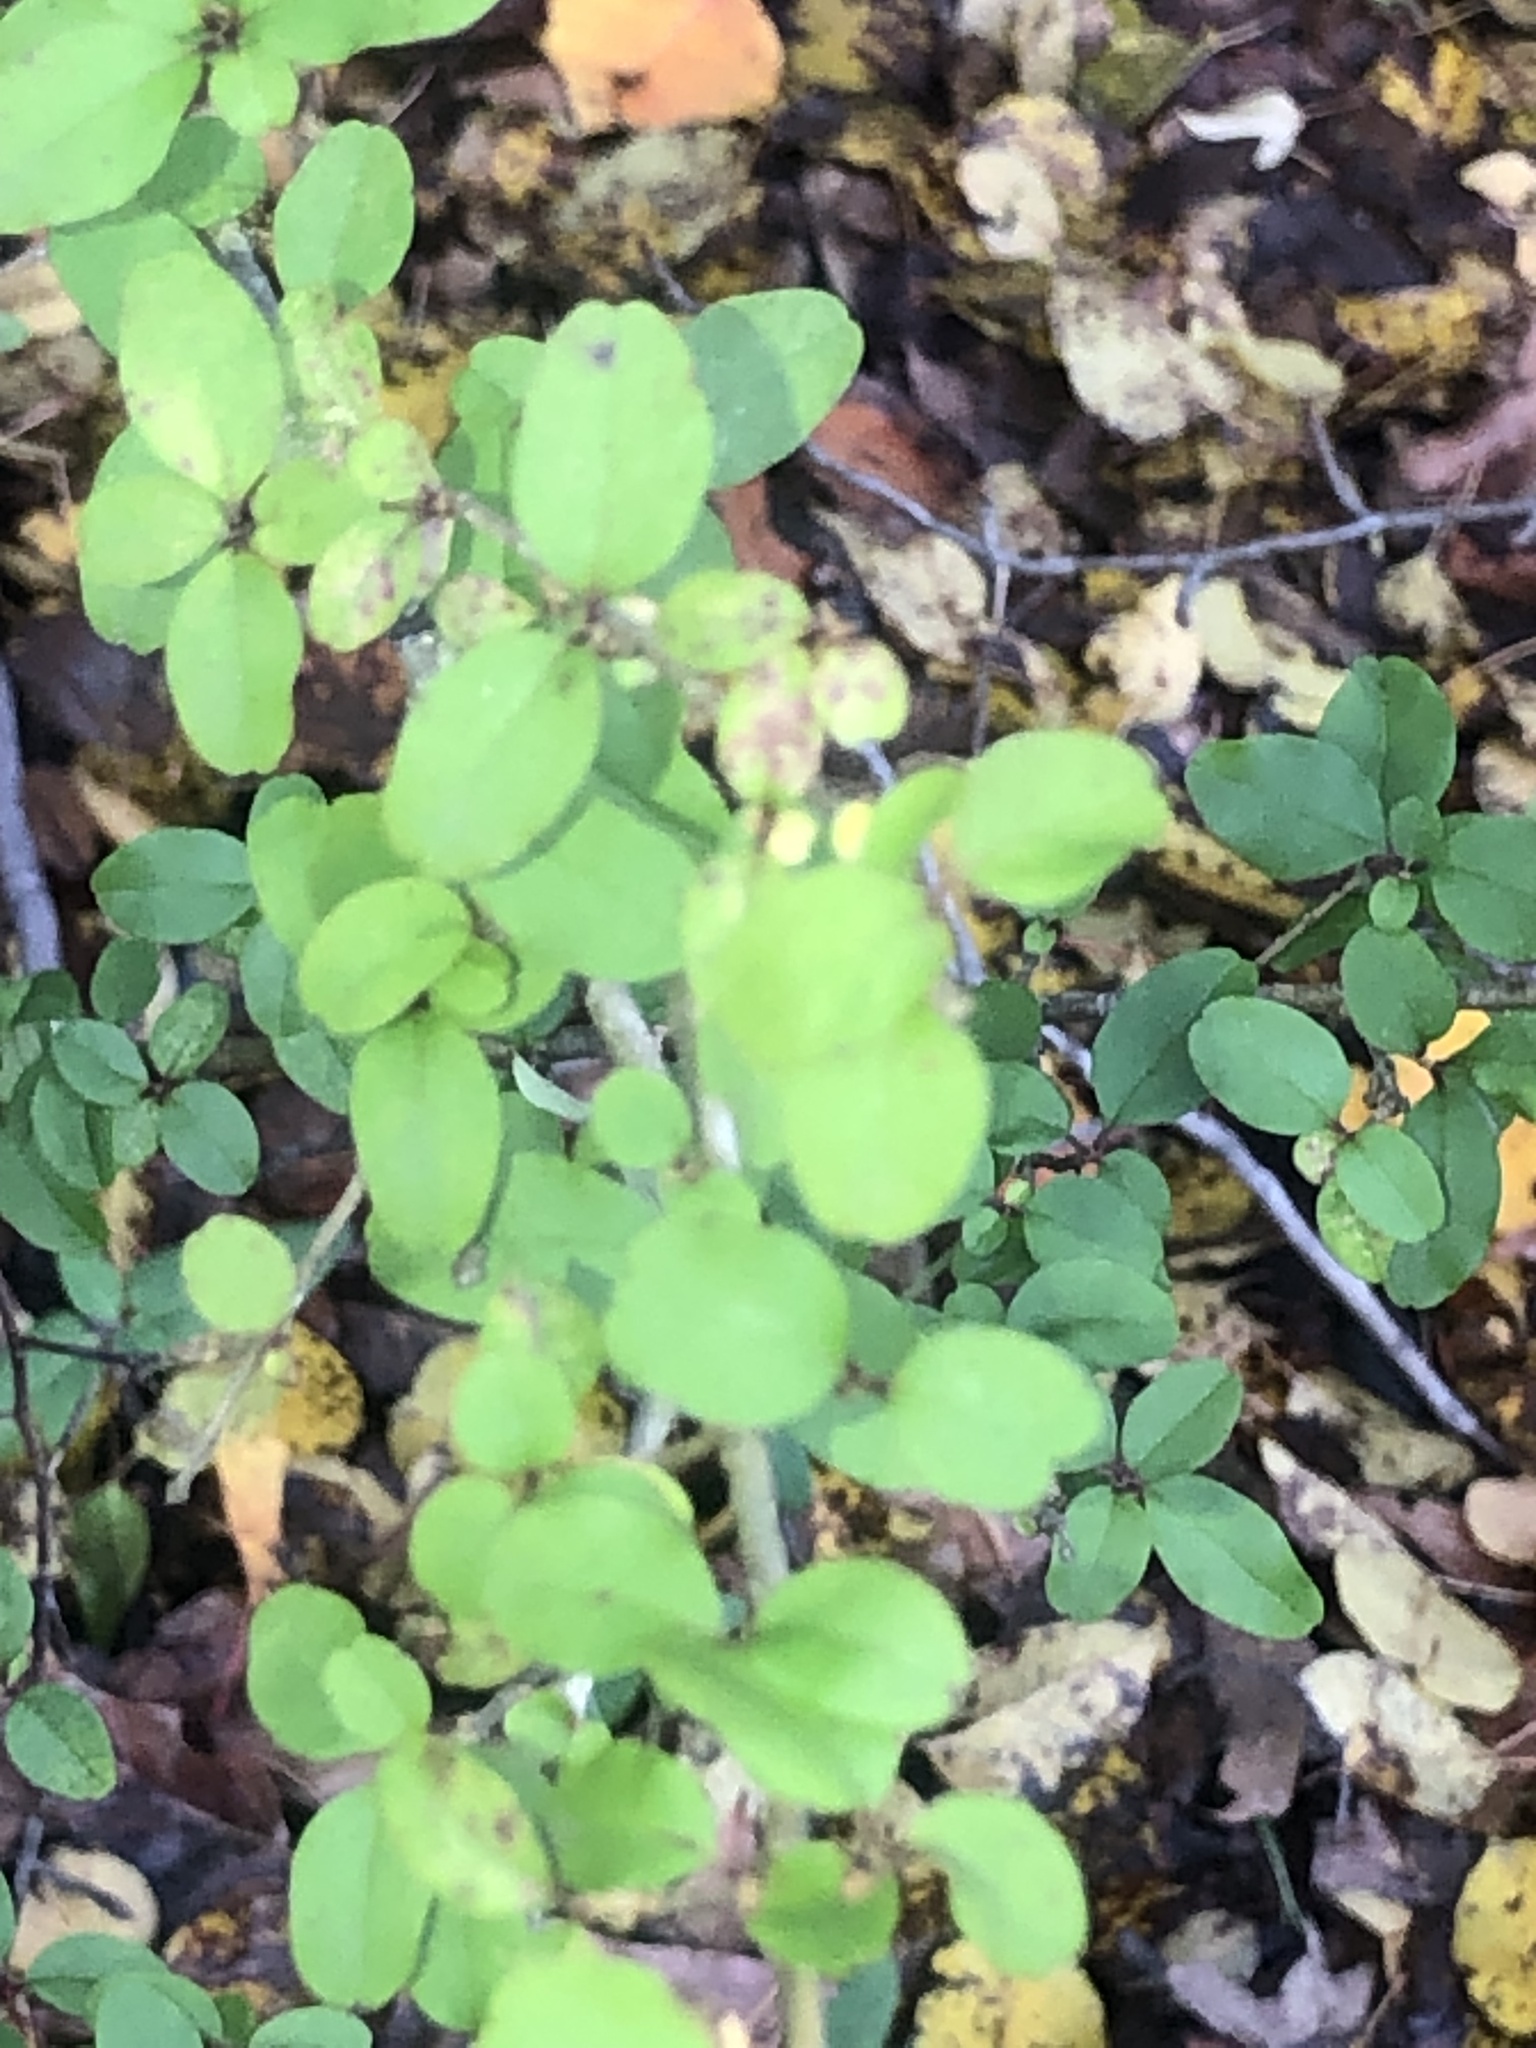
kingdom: Plantae
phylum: Tracheophyta
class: Magnoliopsida
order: Lamiales
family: Oleaceae
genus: Ligustrum
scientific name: Ligustrum sinense
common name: Chinese privet
